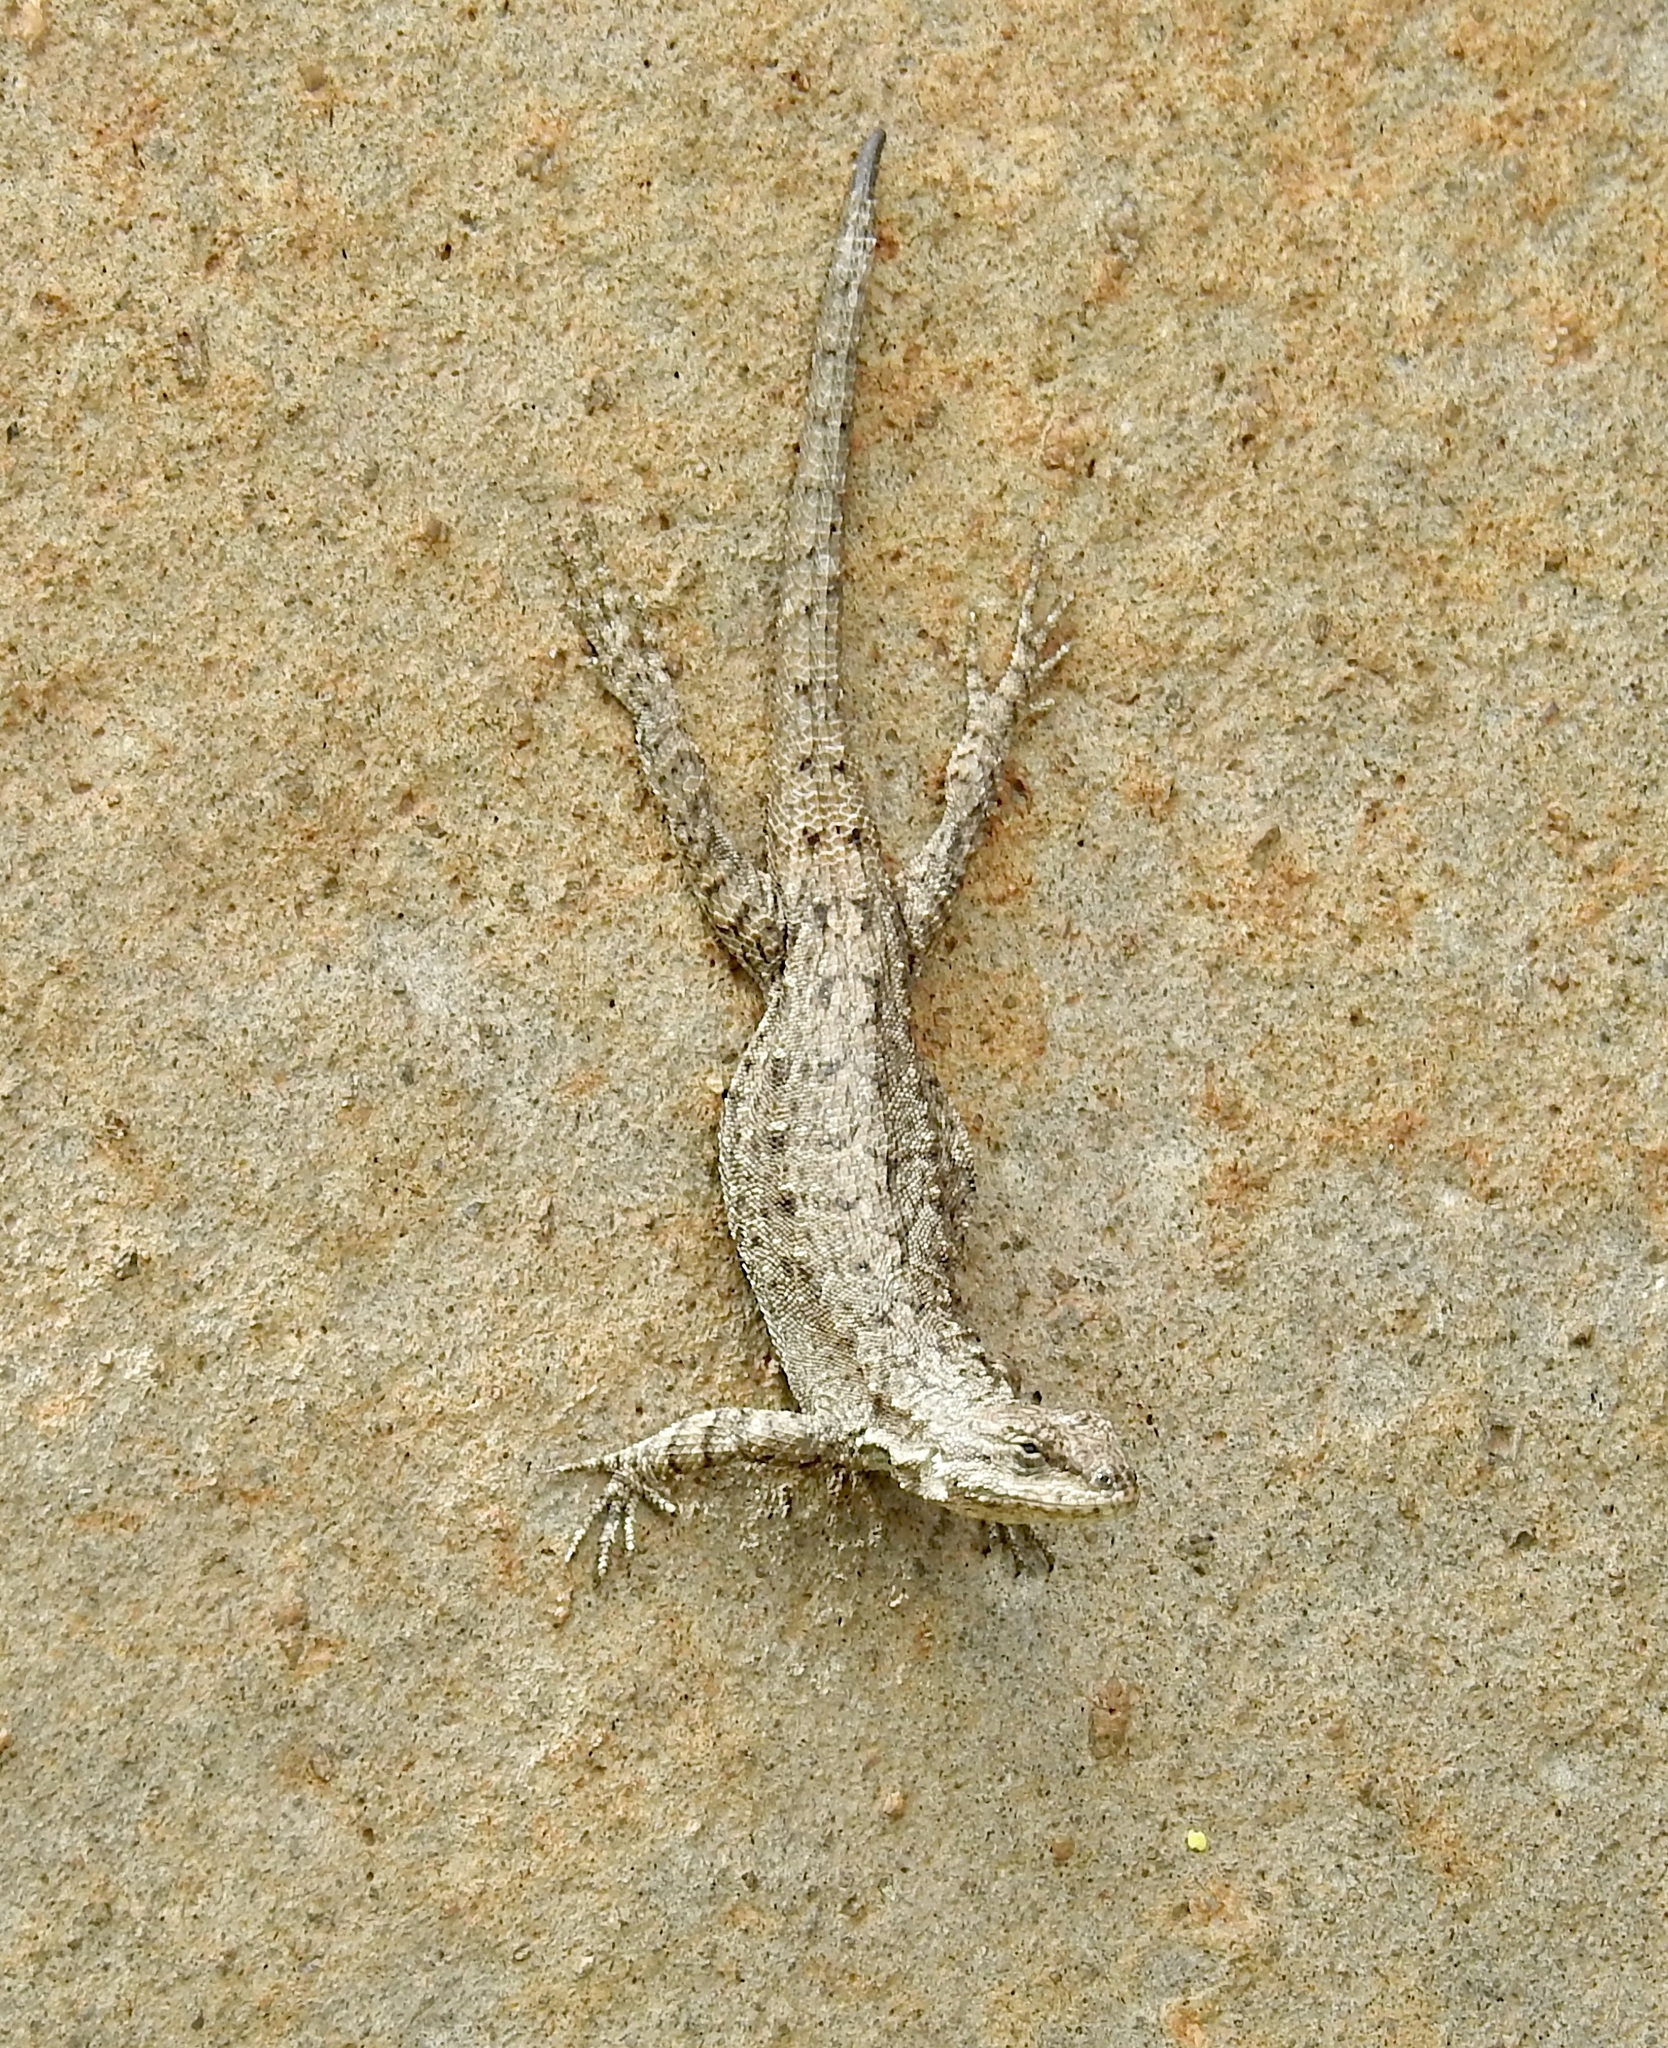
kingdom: Animalia
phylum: Chordata
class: Squamata
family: Phrynosomatidae
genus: Urosaurus
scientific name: Urosaurus ornatus
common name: Ornate tree lizard
